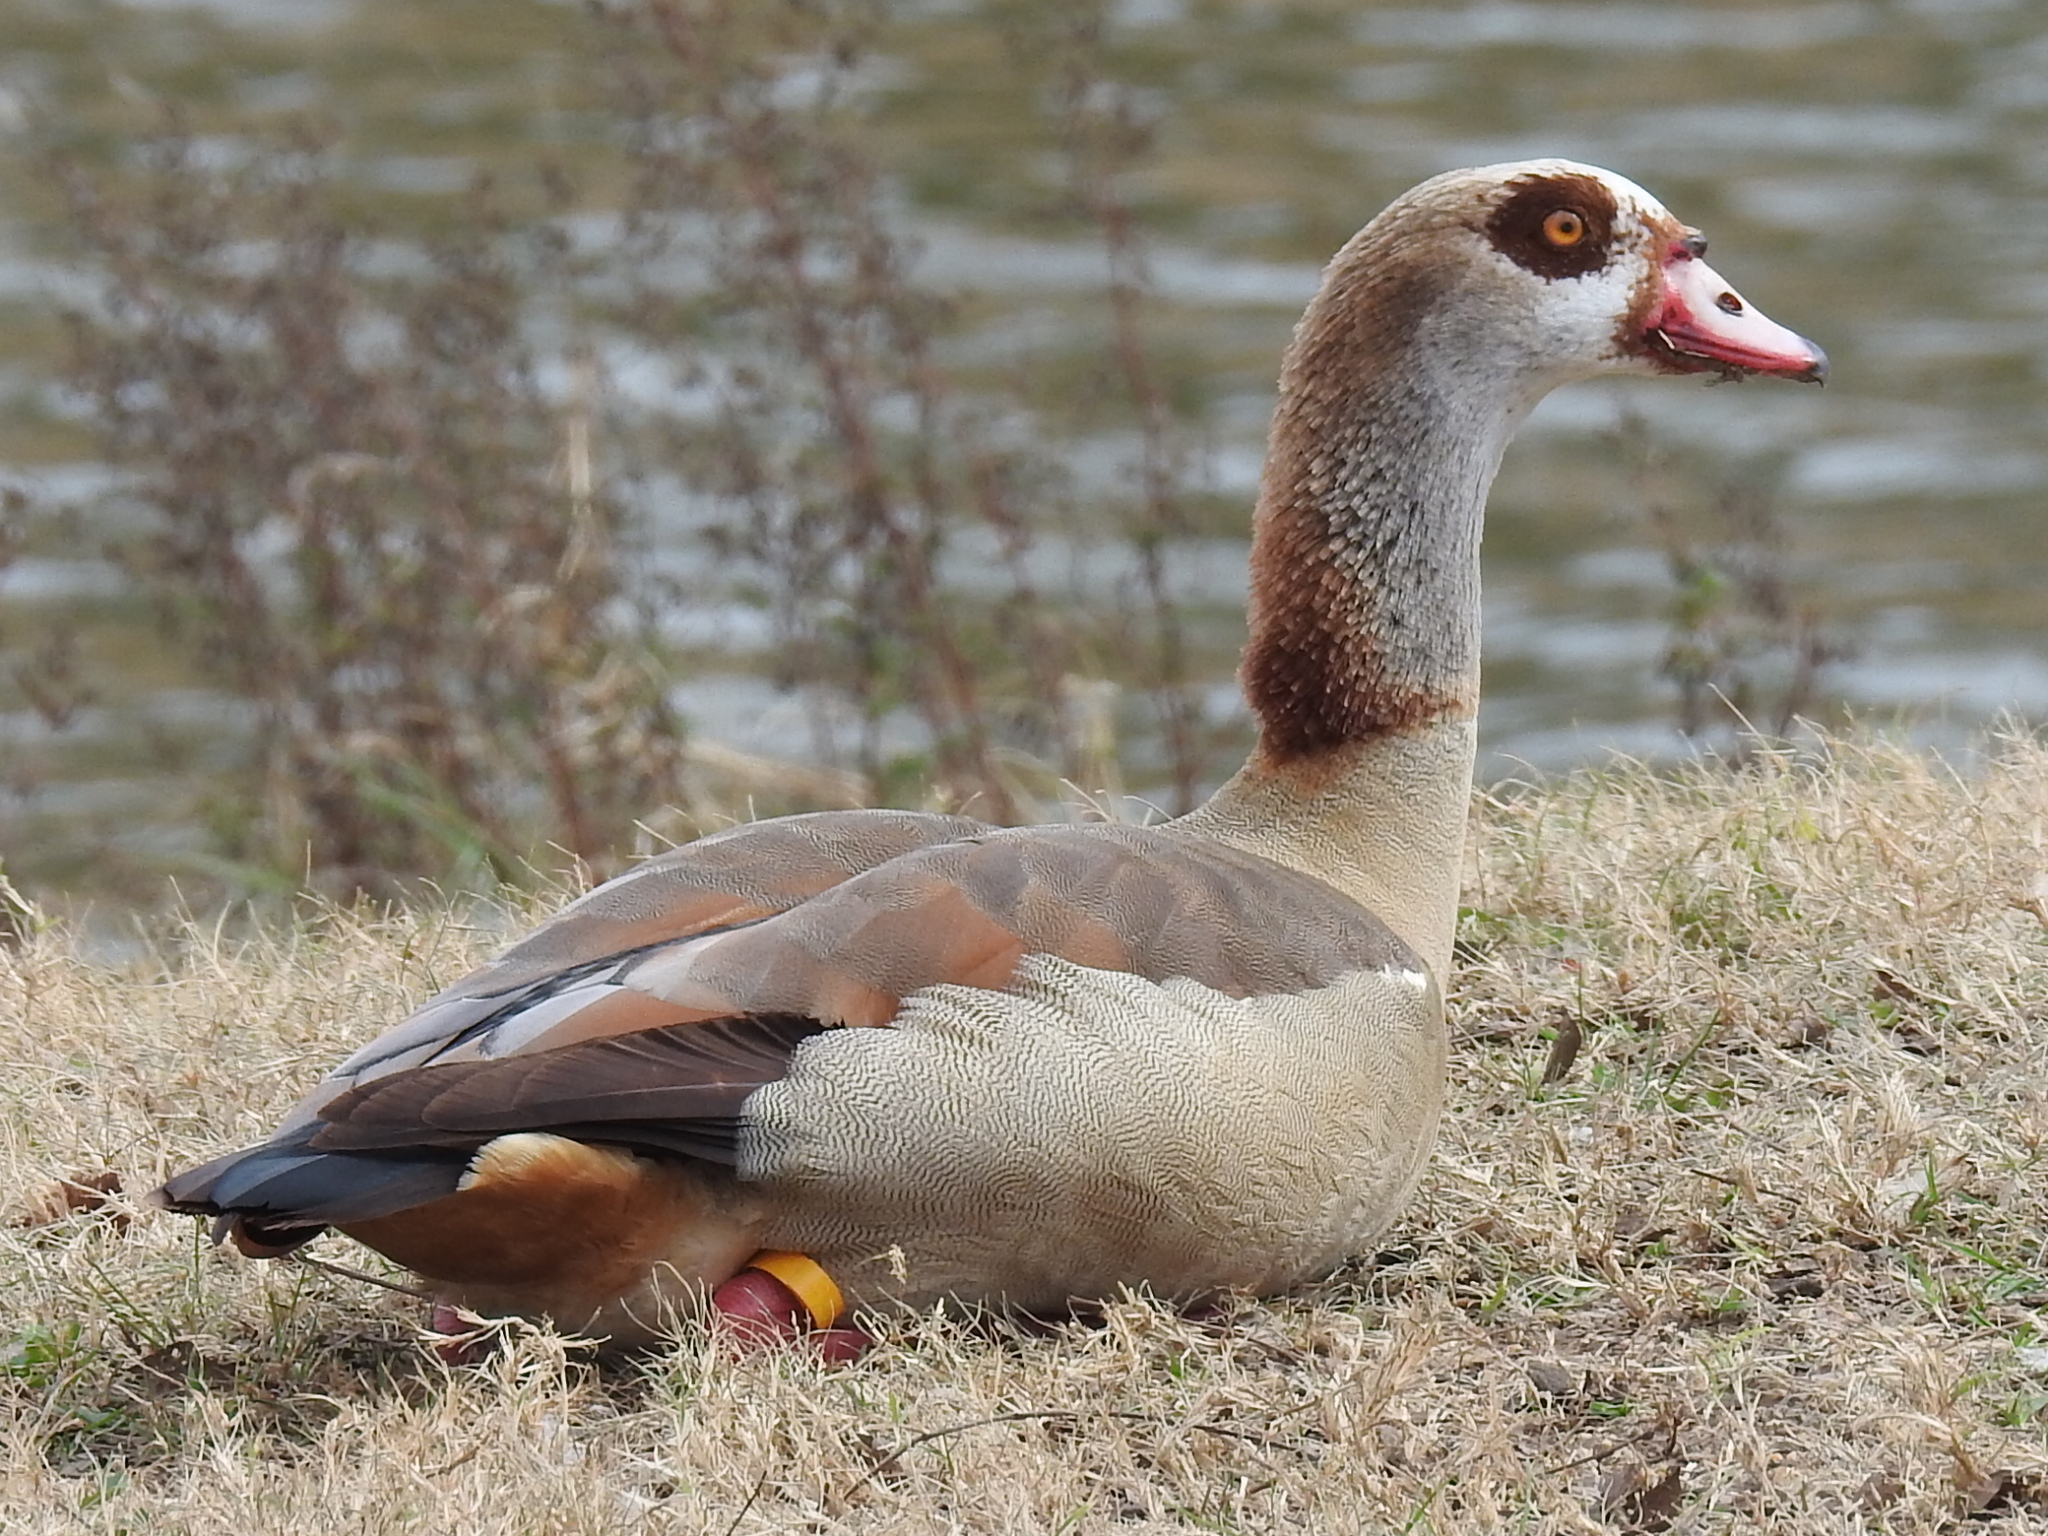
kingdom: Animalia
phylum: Chordata
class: Aves
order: Anseriformes
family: Anatidae
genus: Alopochen
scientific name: Alopochen aegyptiaca
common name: Egyptian goose
